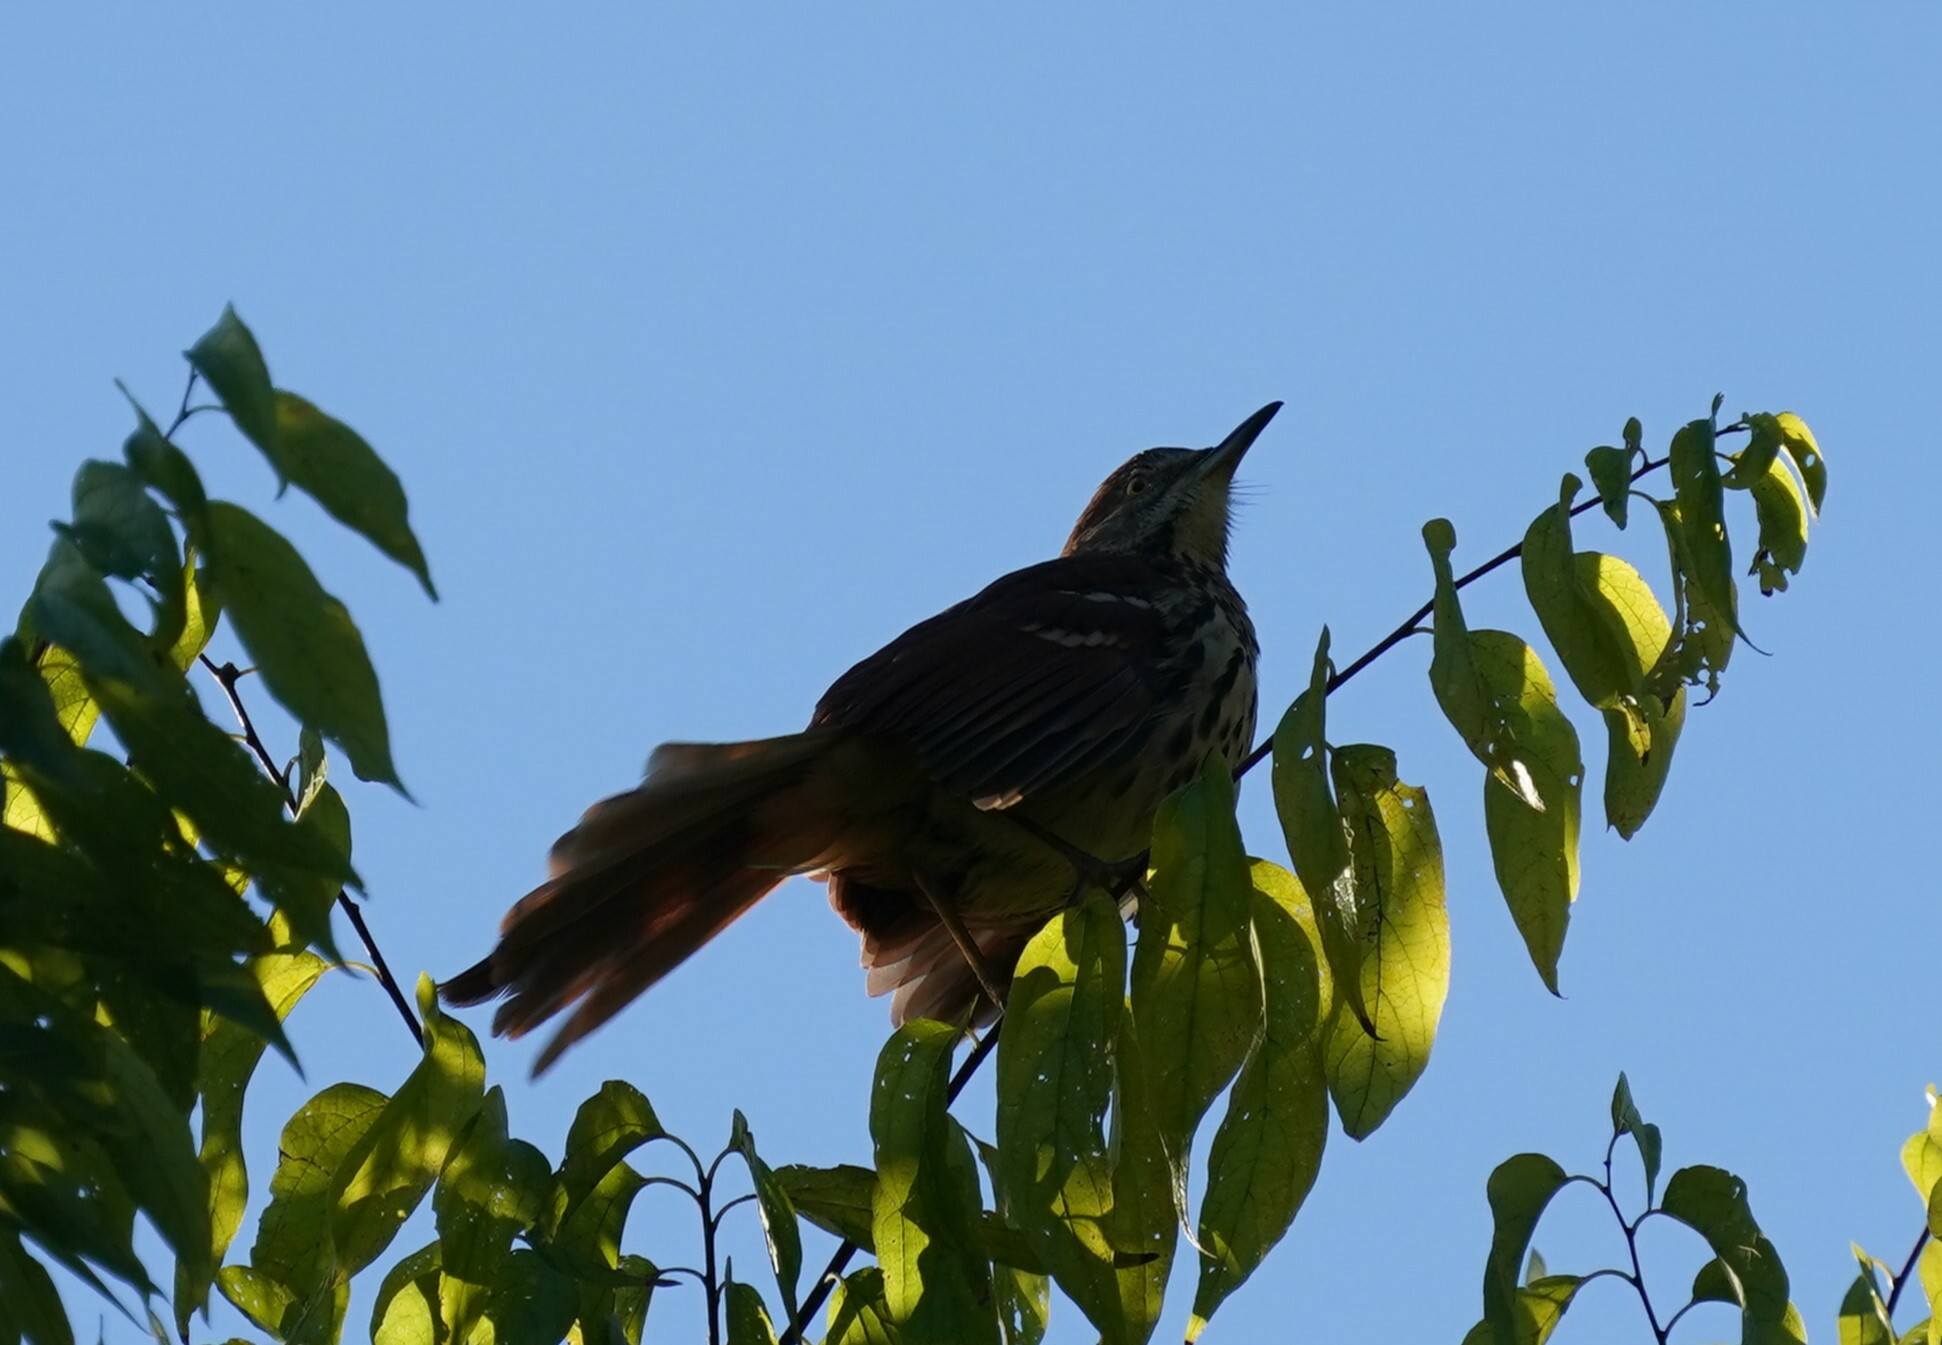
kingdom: Animalia
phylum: Chordata
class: Aves
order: Passeriformes
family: Mimidae
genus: Toxostoma
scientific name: Toxostoma rufum
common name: Brown thrasher
